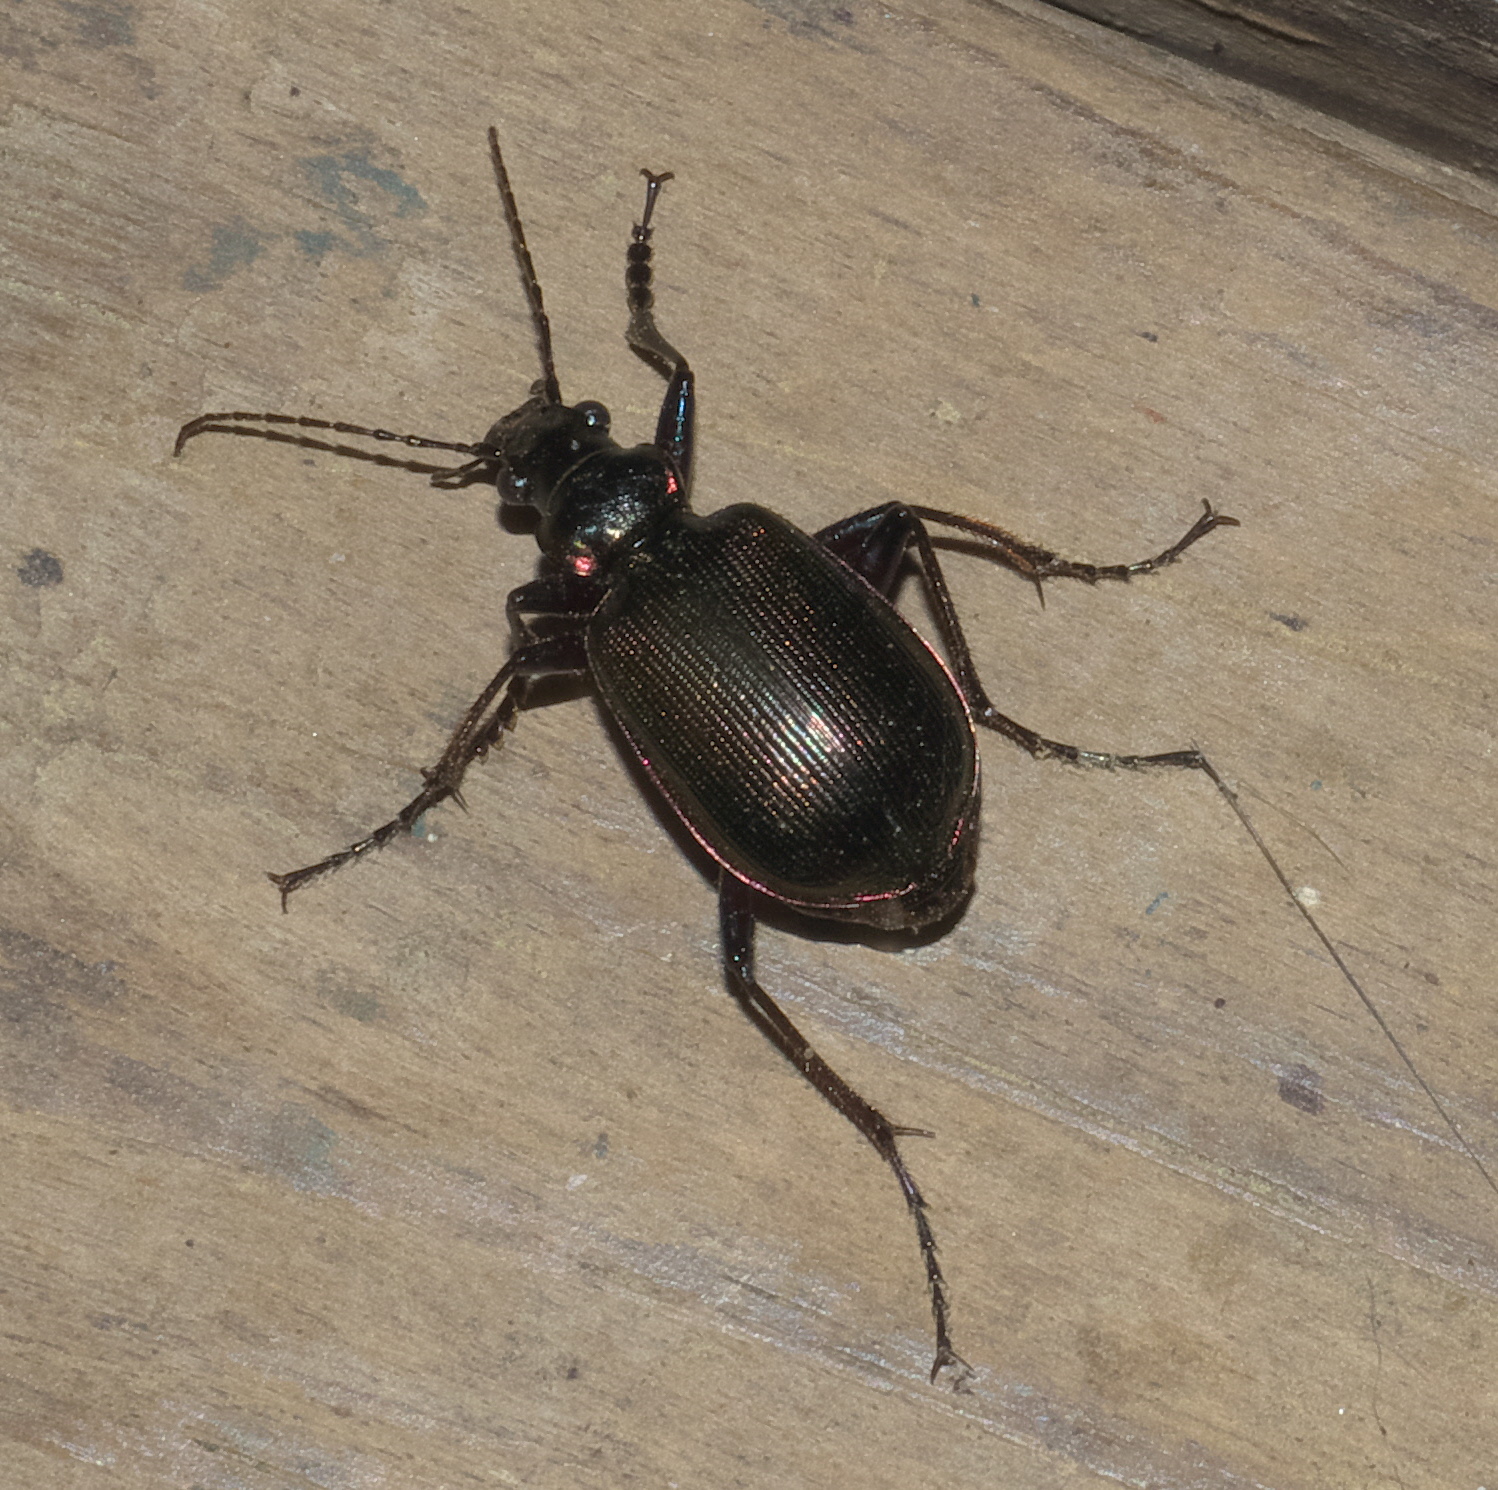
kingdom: Animalia
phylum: Arthropoda
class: Insecta
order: Coleoptera
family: Carabidae
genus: Calosoma
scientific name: Calosoma wilcoxi
